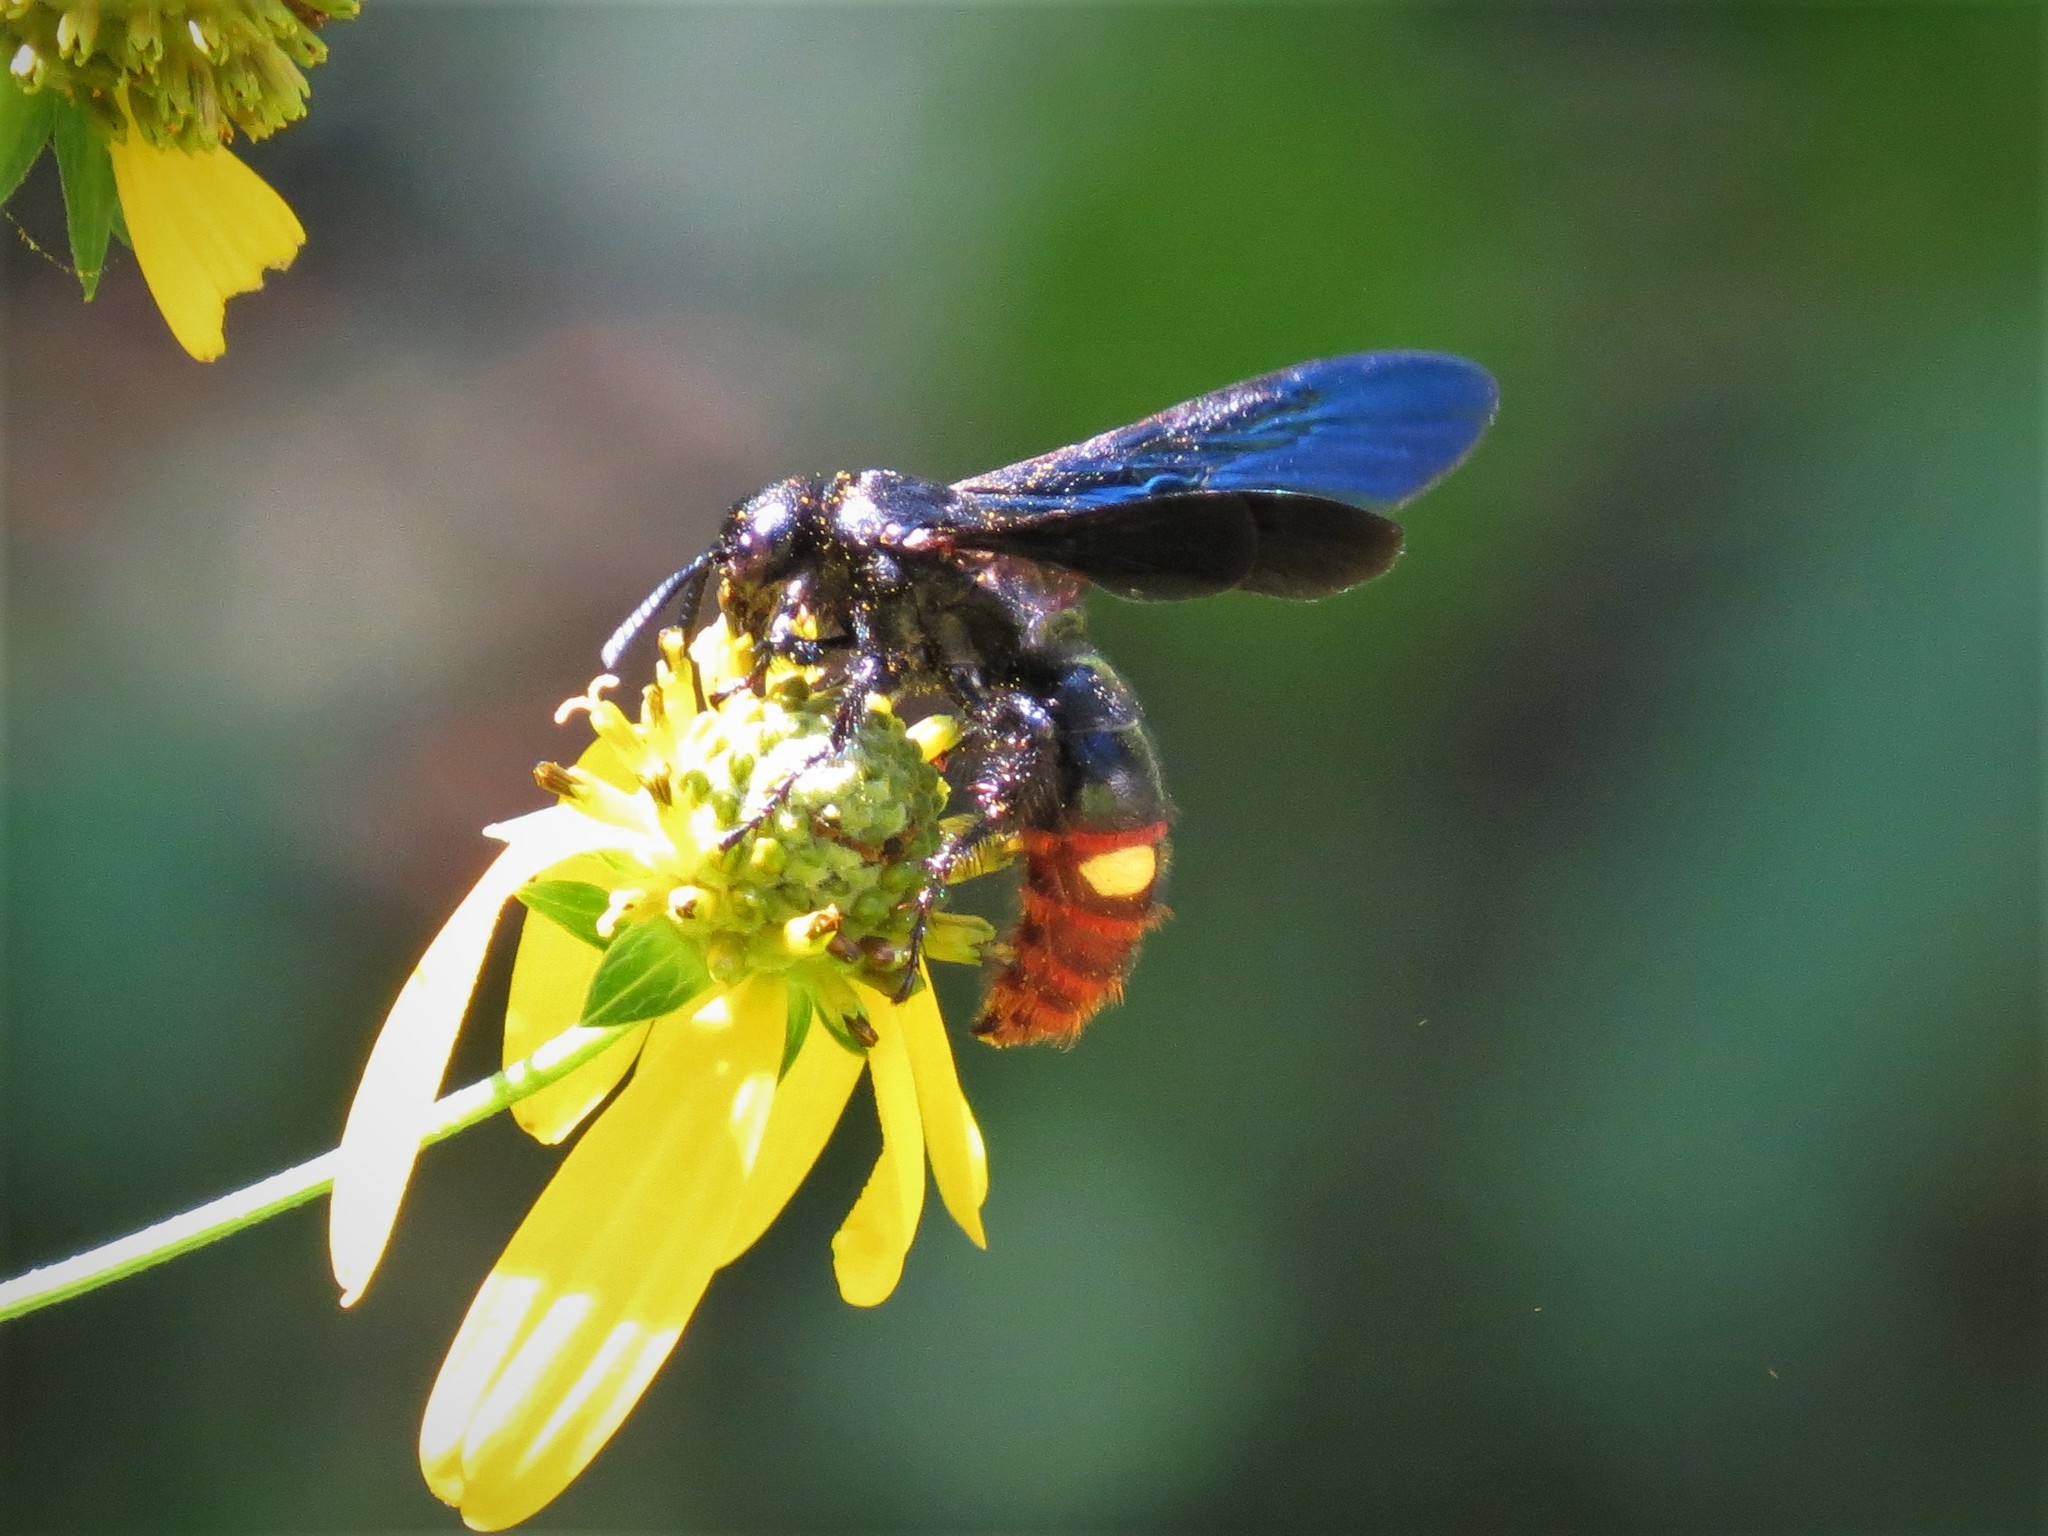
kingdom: Animalia
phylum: Arthropoda
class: Insecta
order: Hymenoptera
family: Scoliidae
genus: Scolia
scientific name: Scolia dubia
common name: Blue-winged scoliid wasp
